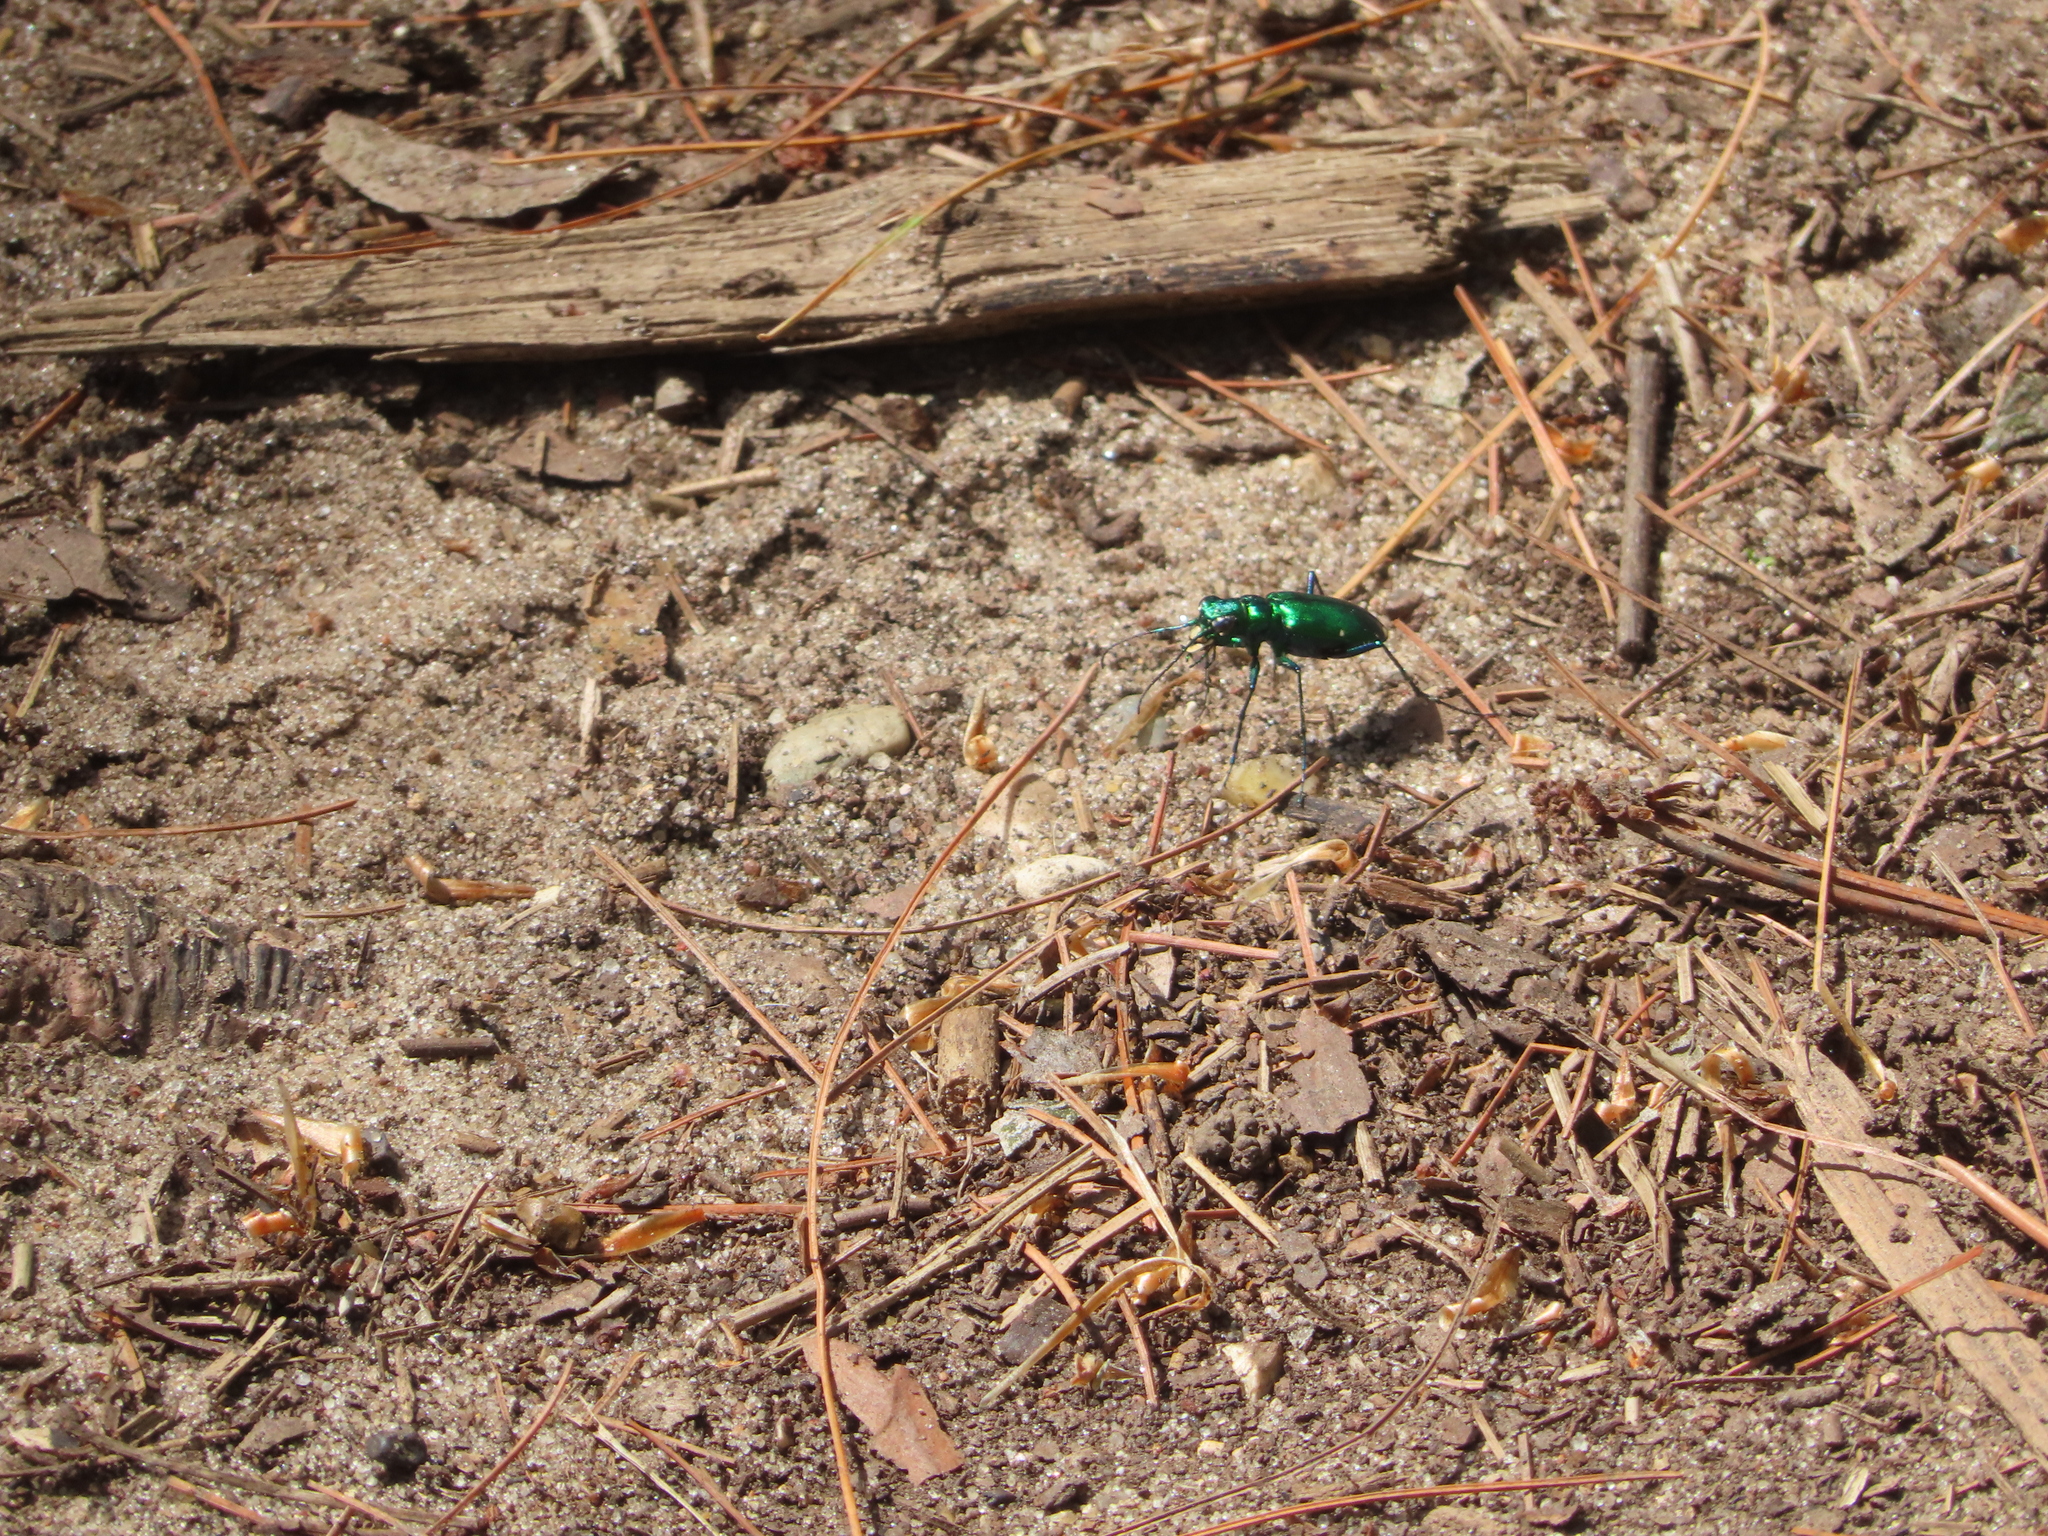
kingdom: Animalia
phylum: Arthropoda
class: Insecta
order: Coleoptera
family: Carabidae
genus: Cicindela
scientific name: Cicindela sexguttata
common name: Six-spotted tiger beetle
